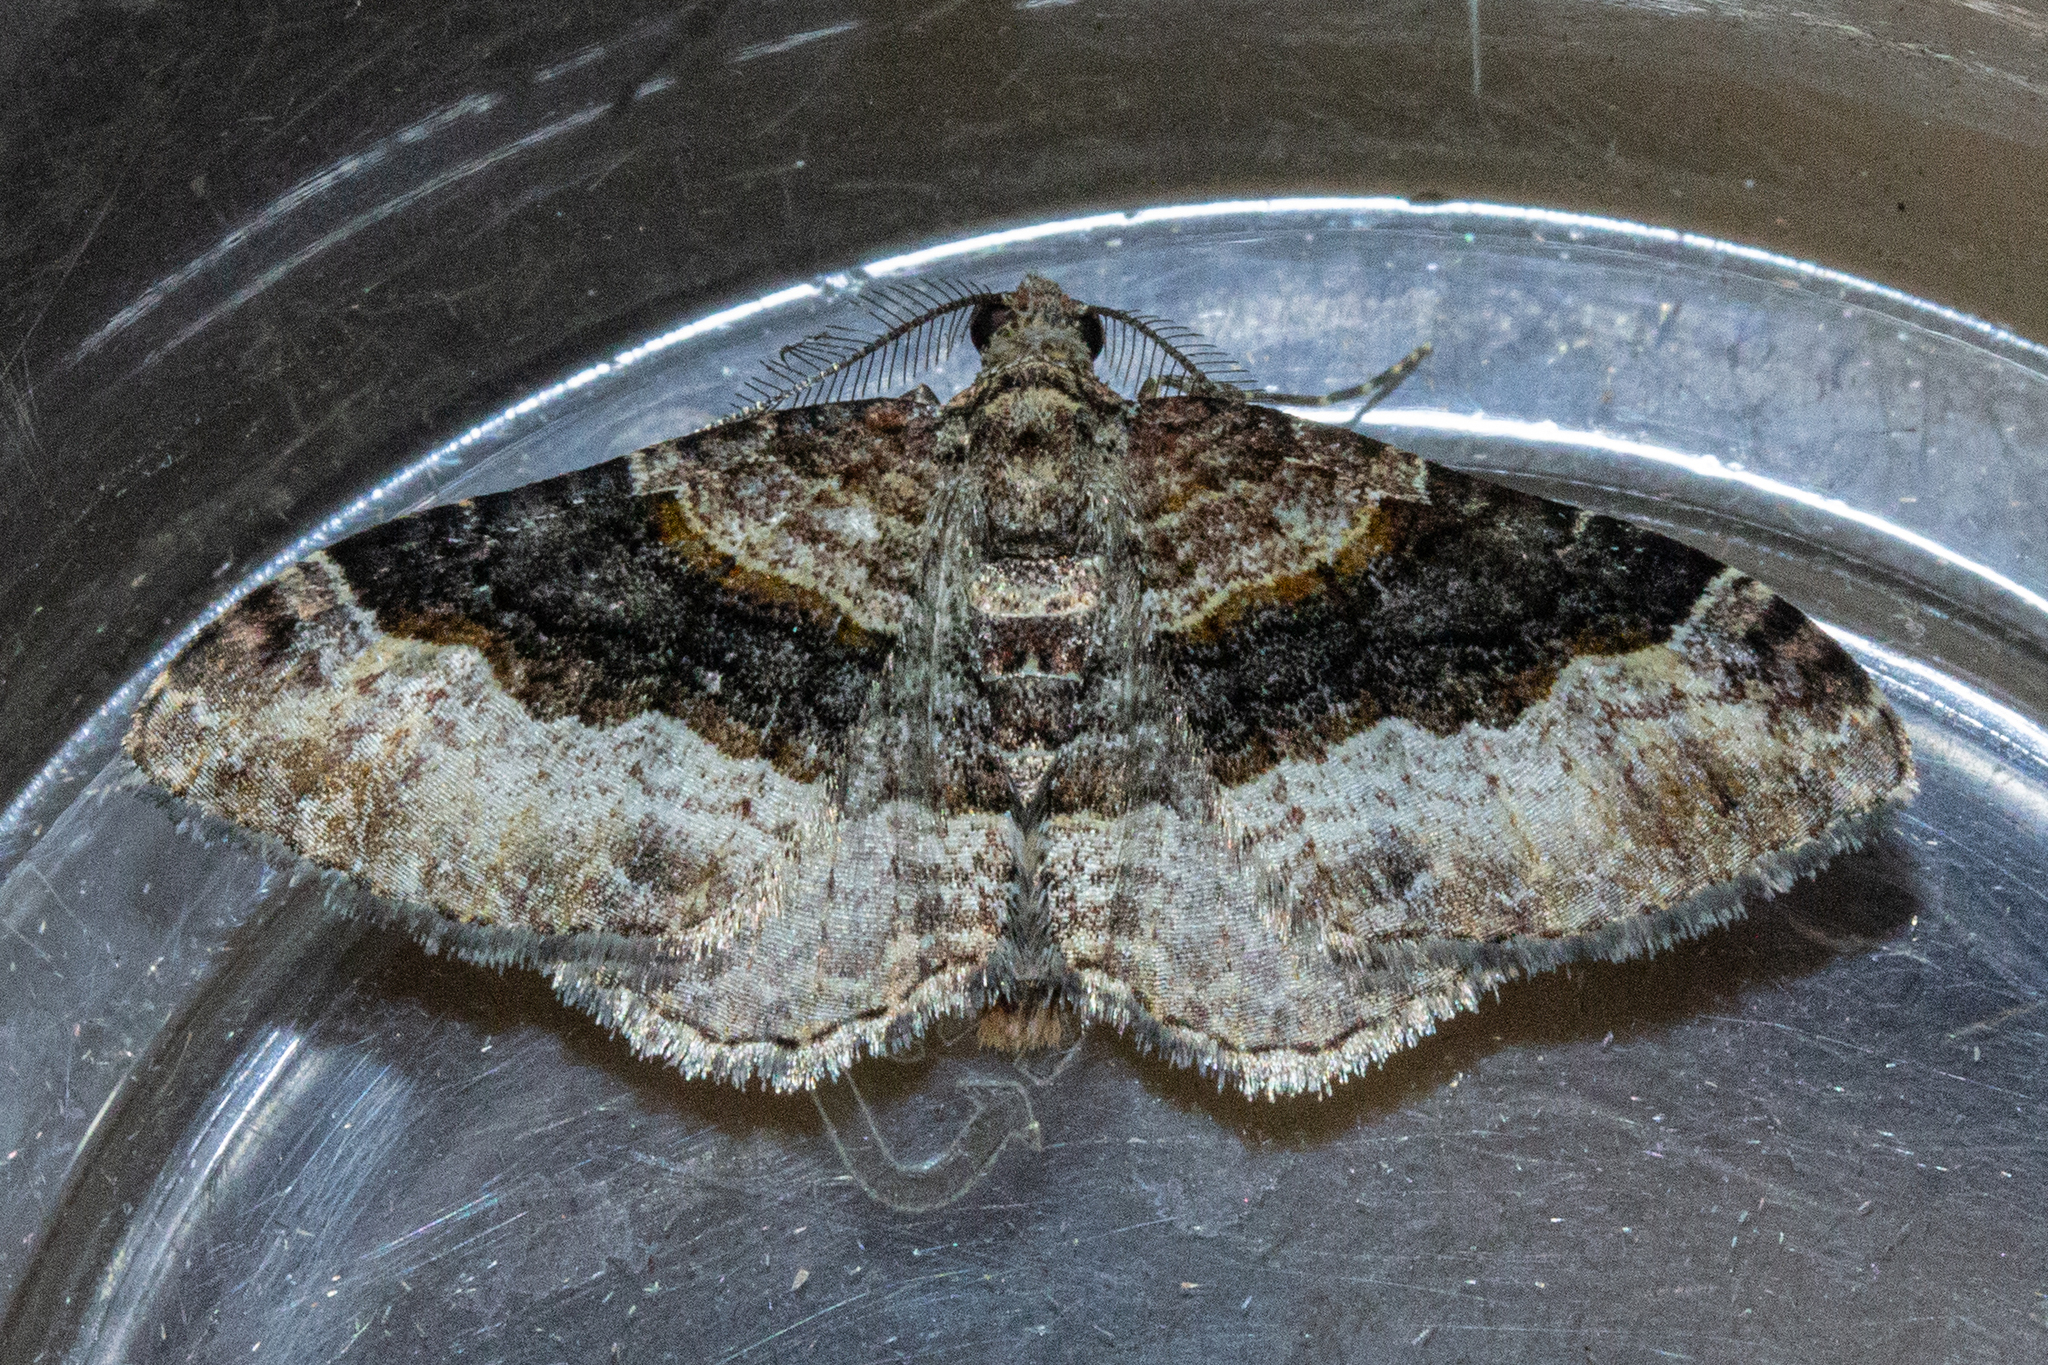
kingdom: Animalia
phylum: Arthropoda
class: Insecta
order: Lepidoptera
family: Geometridae
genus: Epyaxa
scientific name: Epyaxa lucidata
